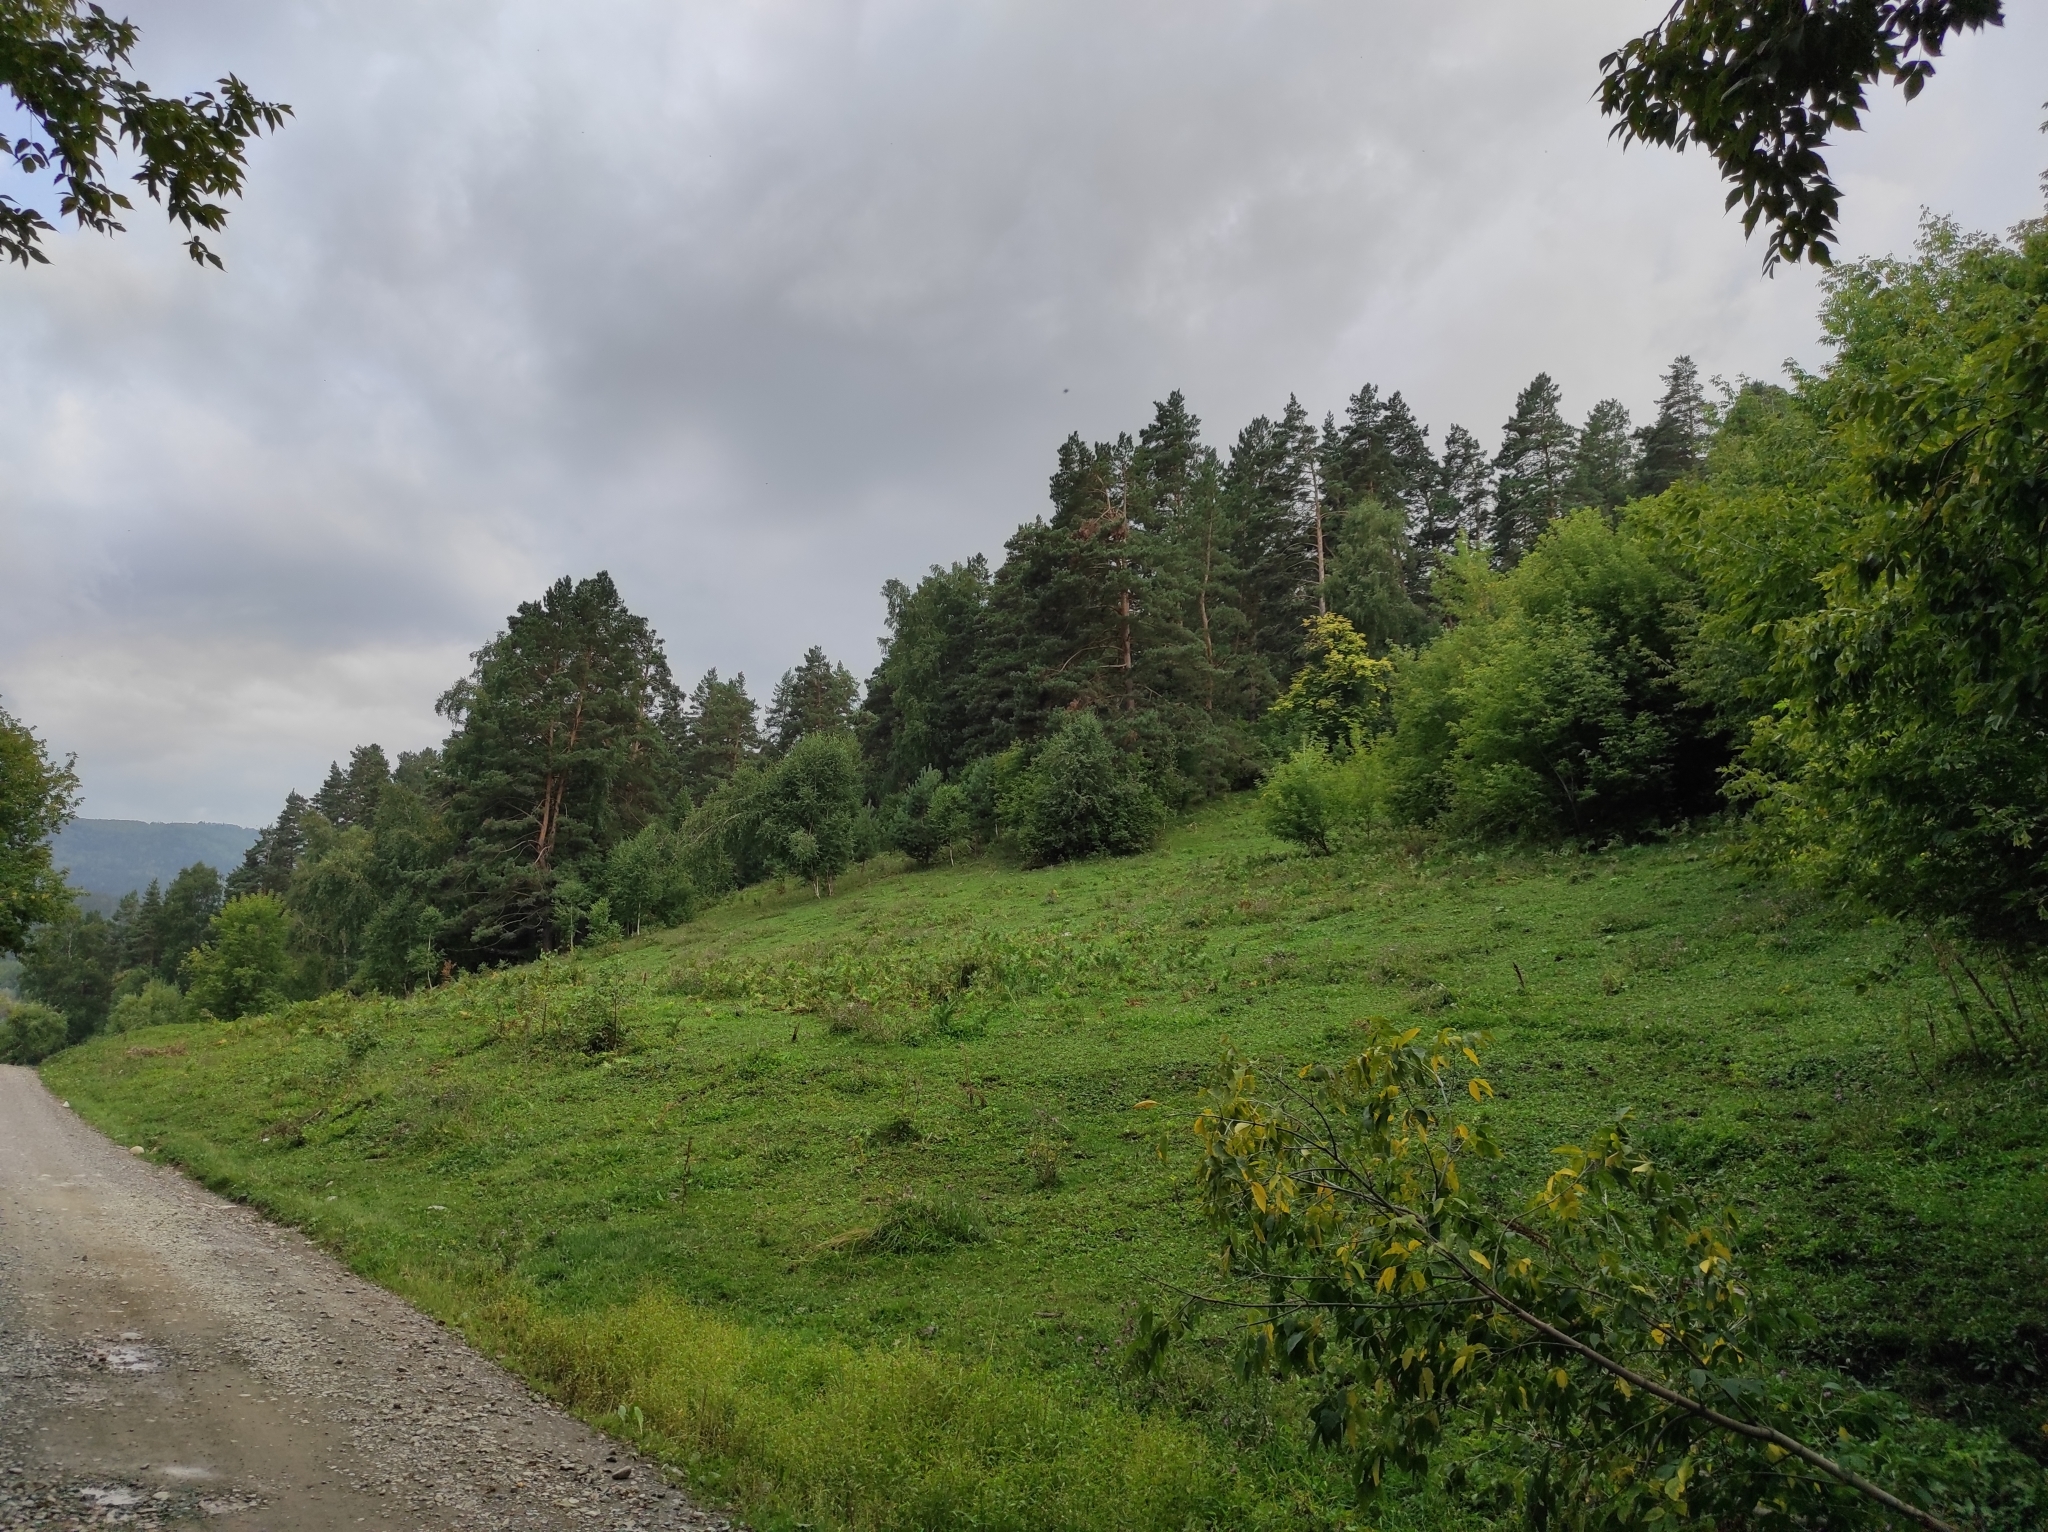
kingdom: Plantae
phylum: Tracheophyta
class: Pinopsida
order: Pinales
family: Pinaceae
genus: Pinus
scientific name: Pinus sylvestris
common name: Scots pine
